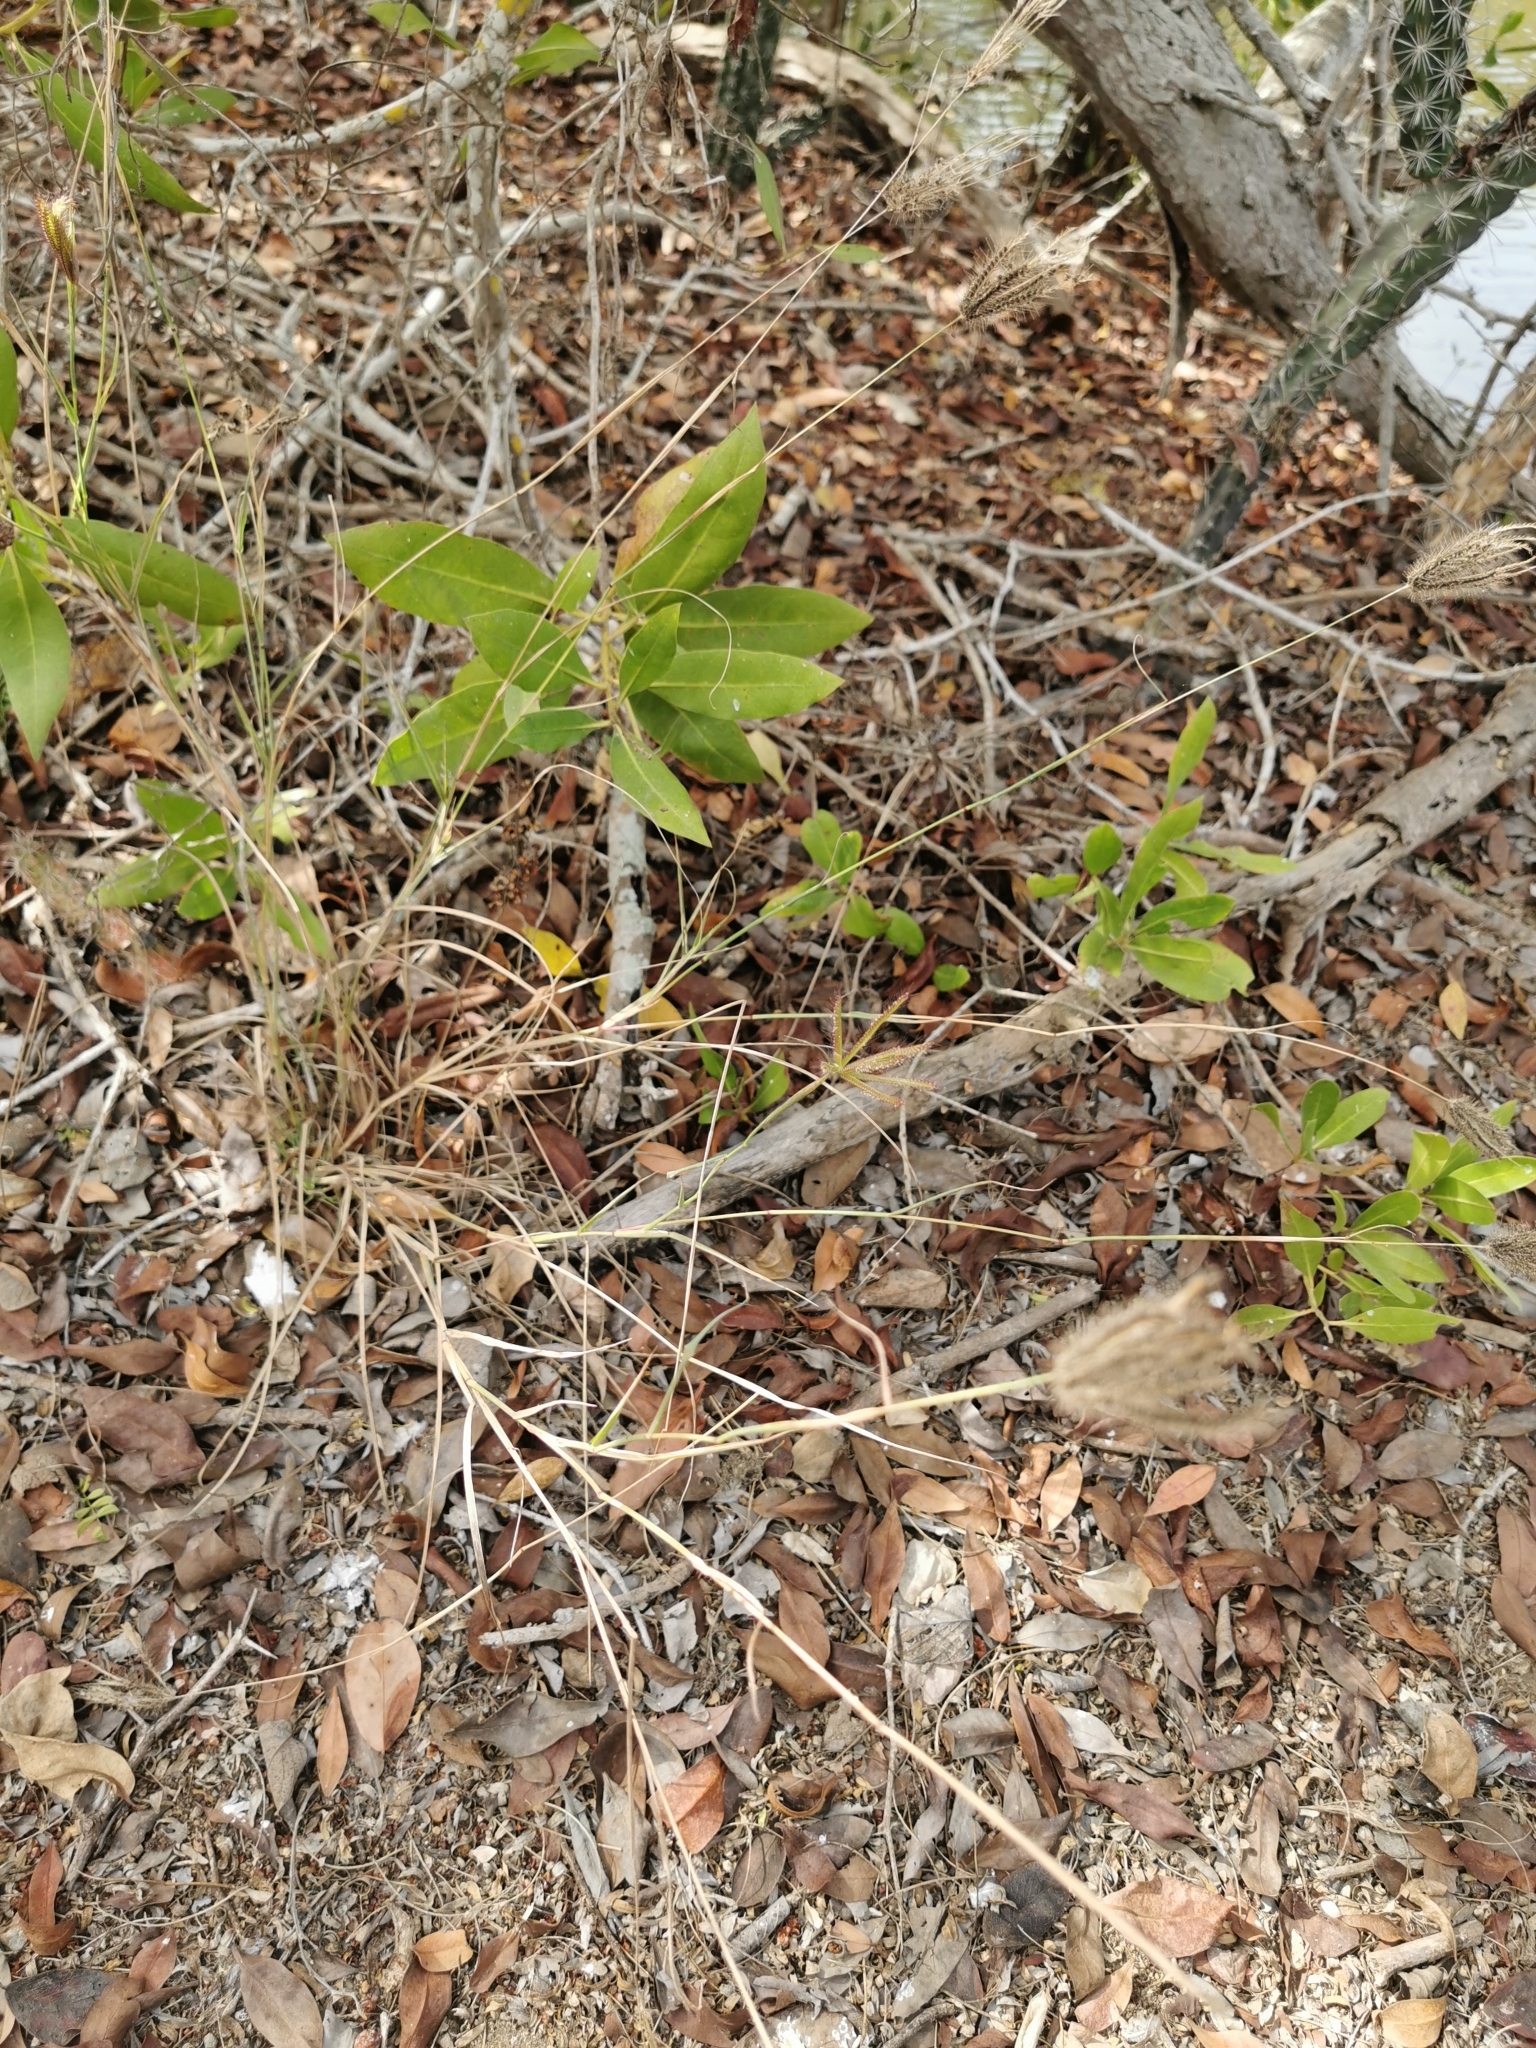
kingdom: Plantae
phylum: Tracheophyta
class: Liliopsida
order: Poales
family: Poaceae
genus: Chloris
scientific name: Chloris barbata
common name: Swollen fingergrass
